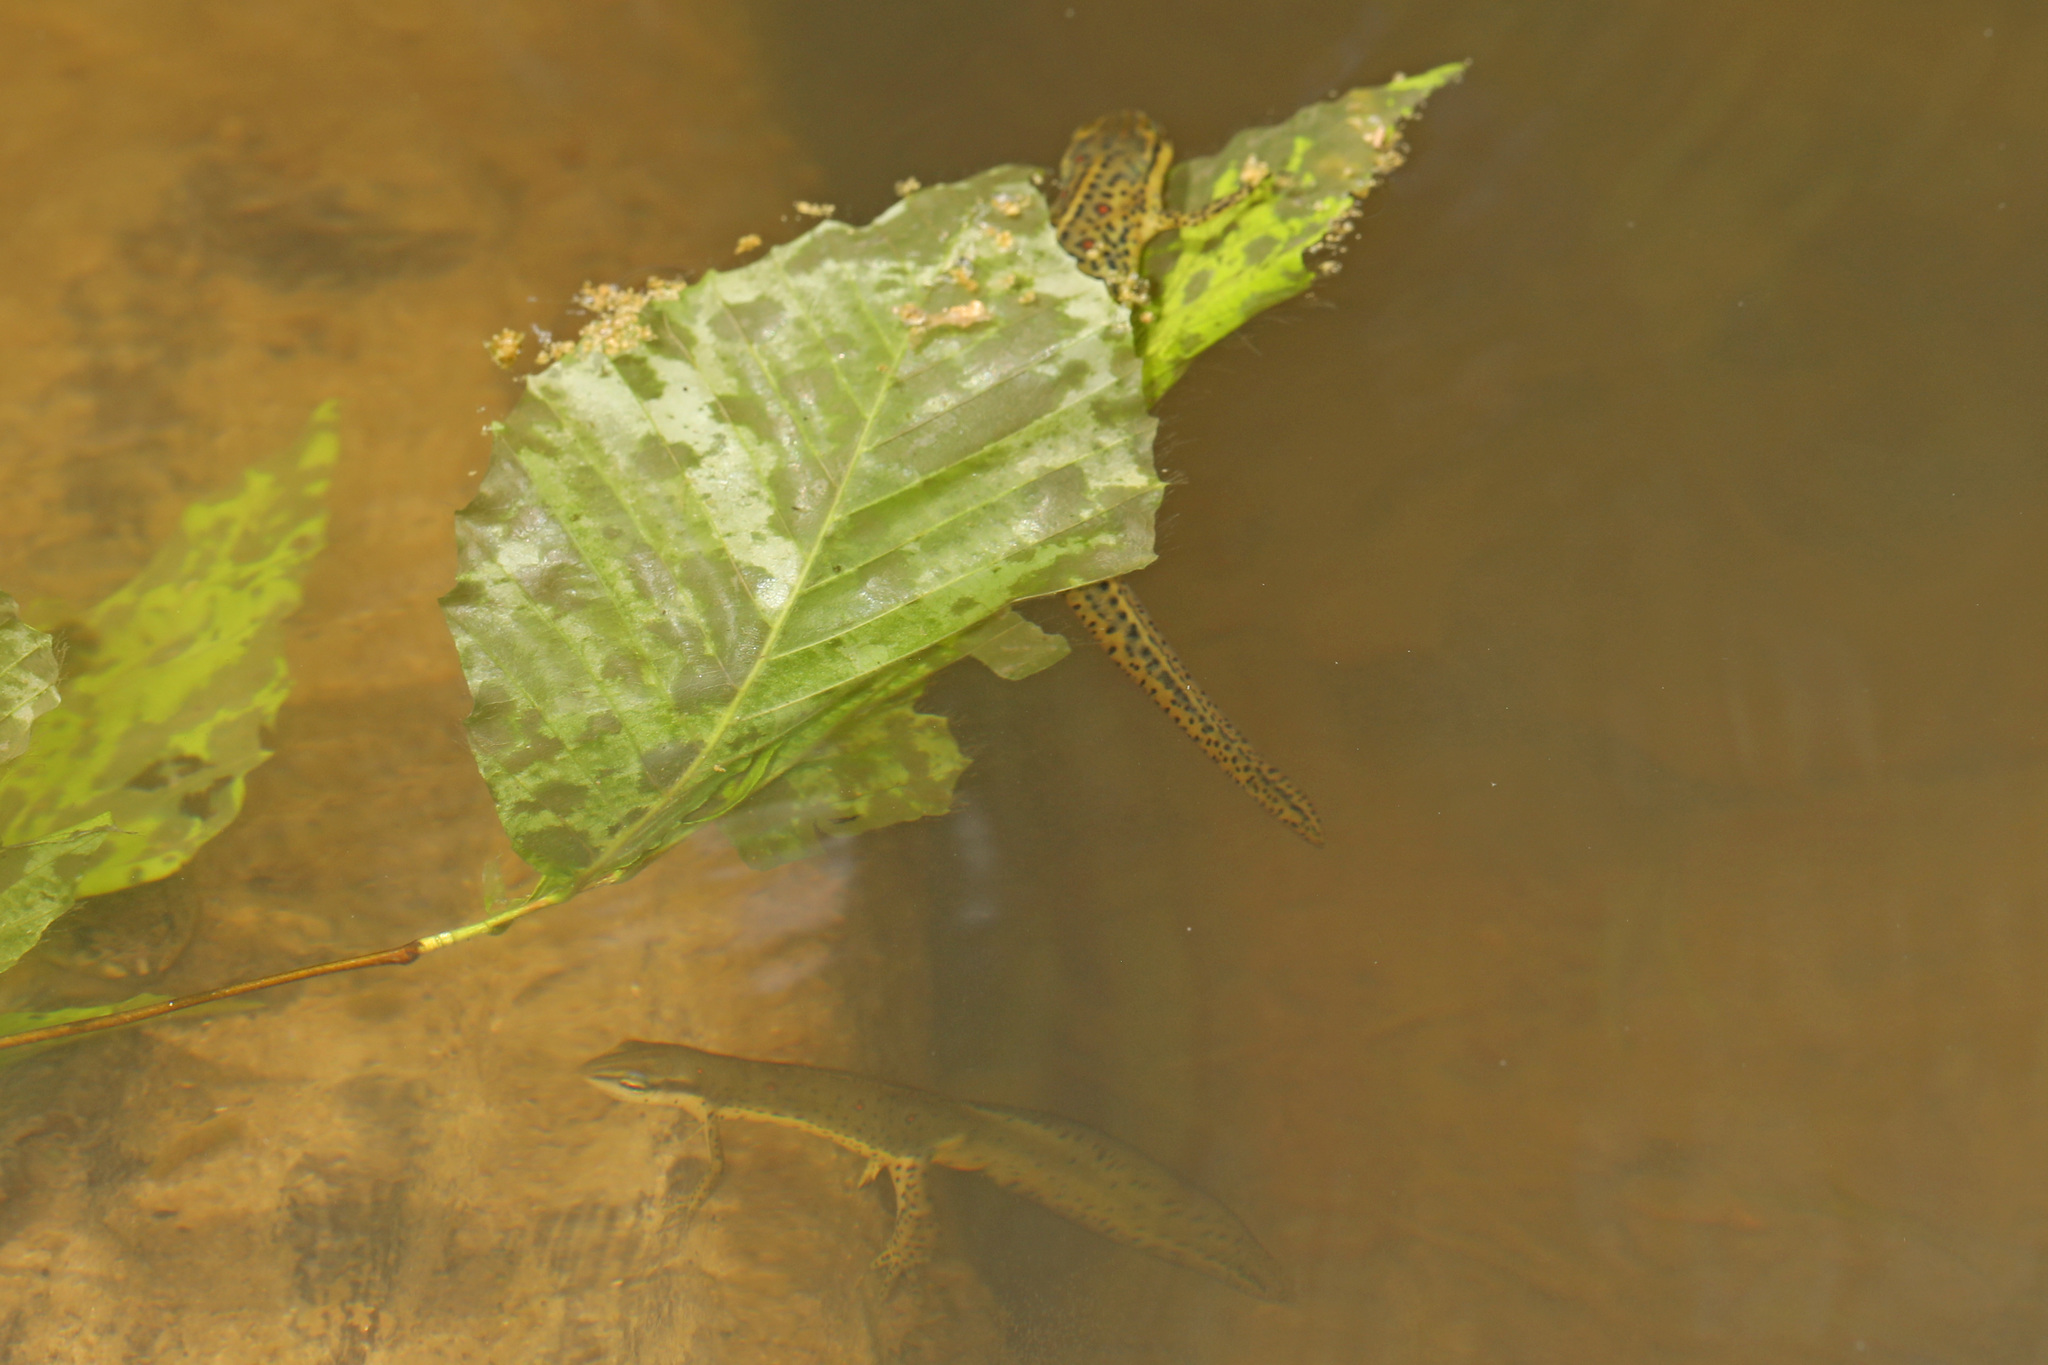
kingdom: Animalia
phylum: Chordata
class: Amphibia
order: Caudata
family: Salamandridae
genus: Notophthalmus
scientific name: Notophthalmus viridescens
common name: Eastern newt
